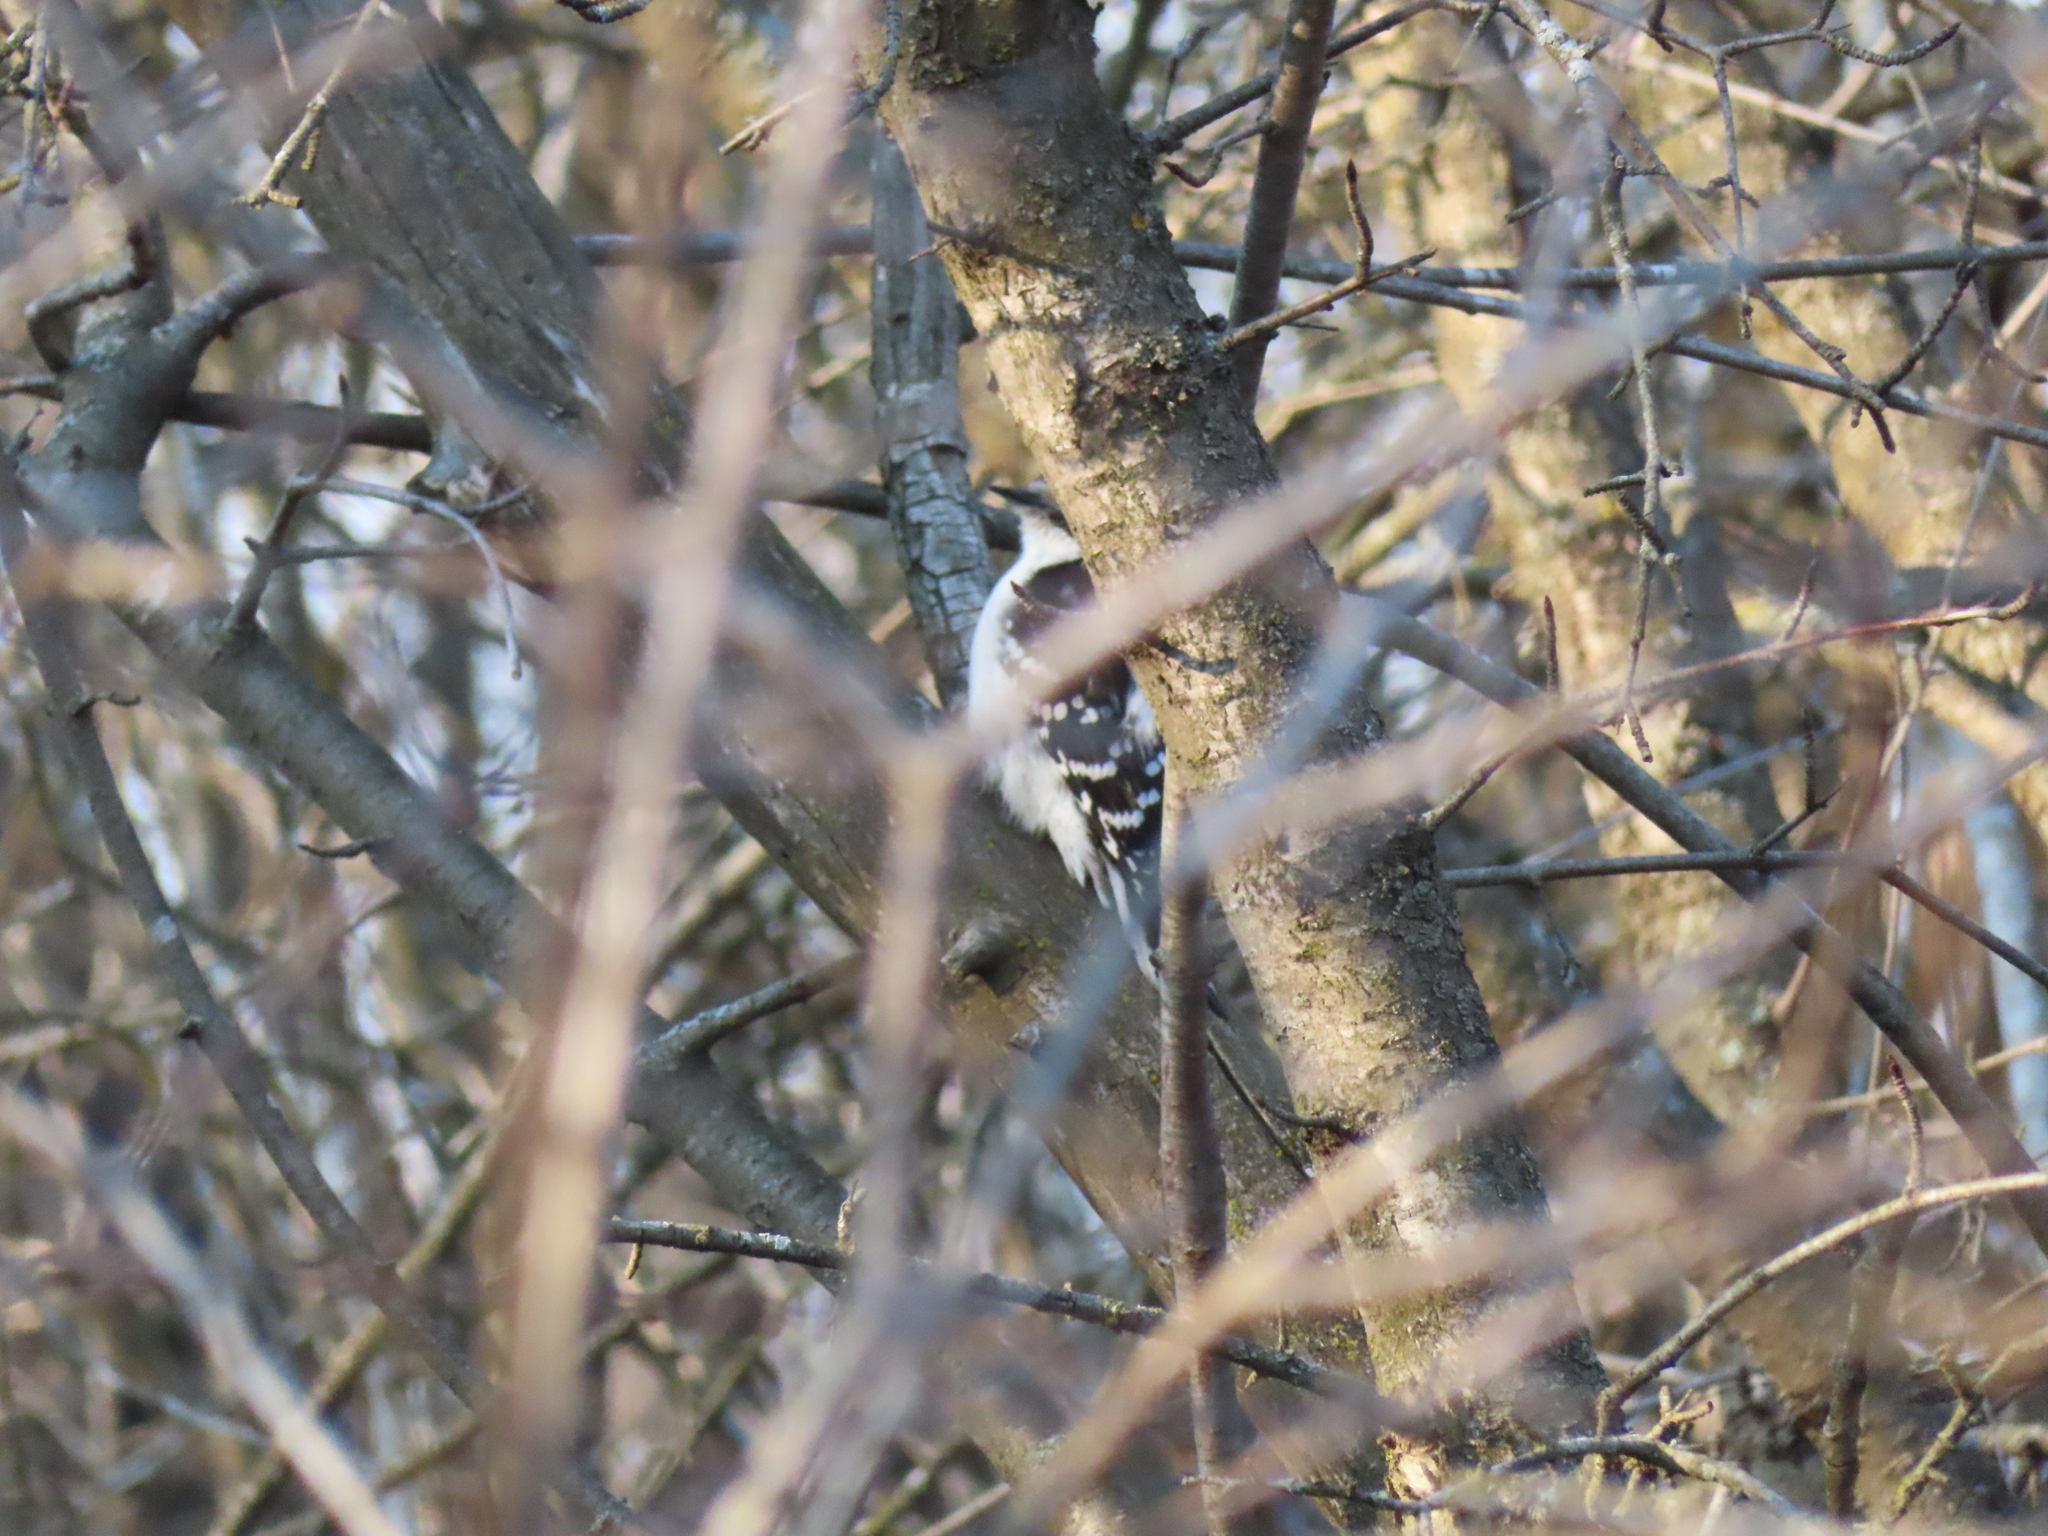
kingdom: Animalia
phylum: Chordata
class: Aves
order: Piciformes
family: Picidae
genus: Dryobates
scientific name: Dryobates pubescens
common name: Downy woodpecker
